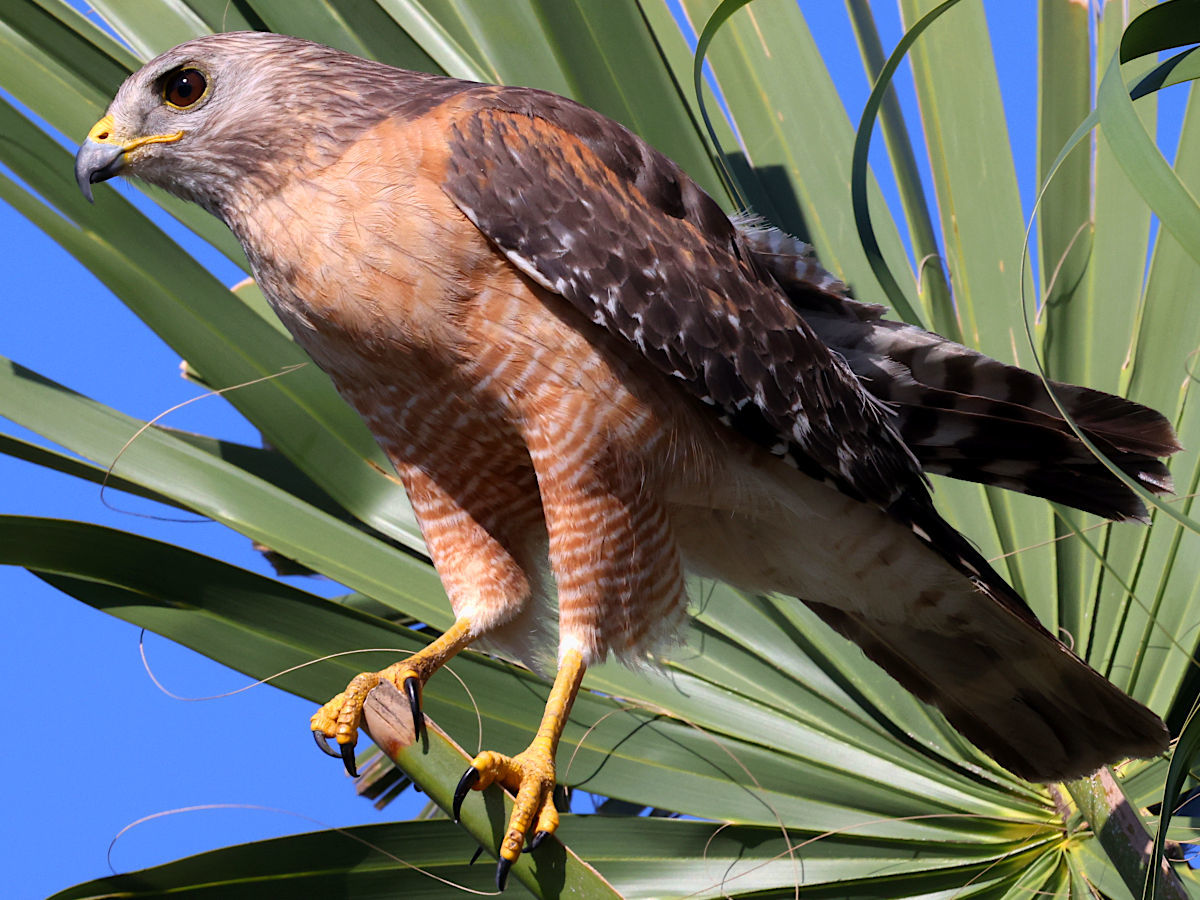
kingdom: Animalia
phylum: Chordata
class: Aves
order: Accipitriformes
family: Accipitridae
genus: Buteo
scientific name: Buteo lineatus
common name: Red-shouldered hawk
